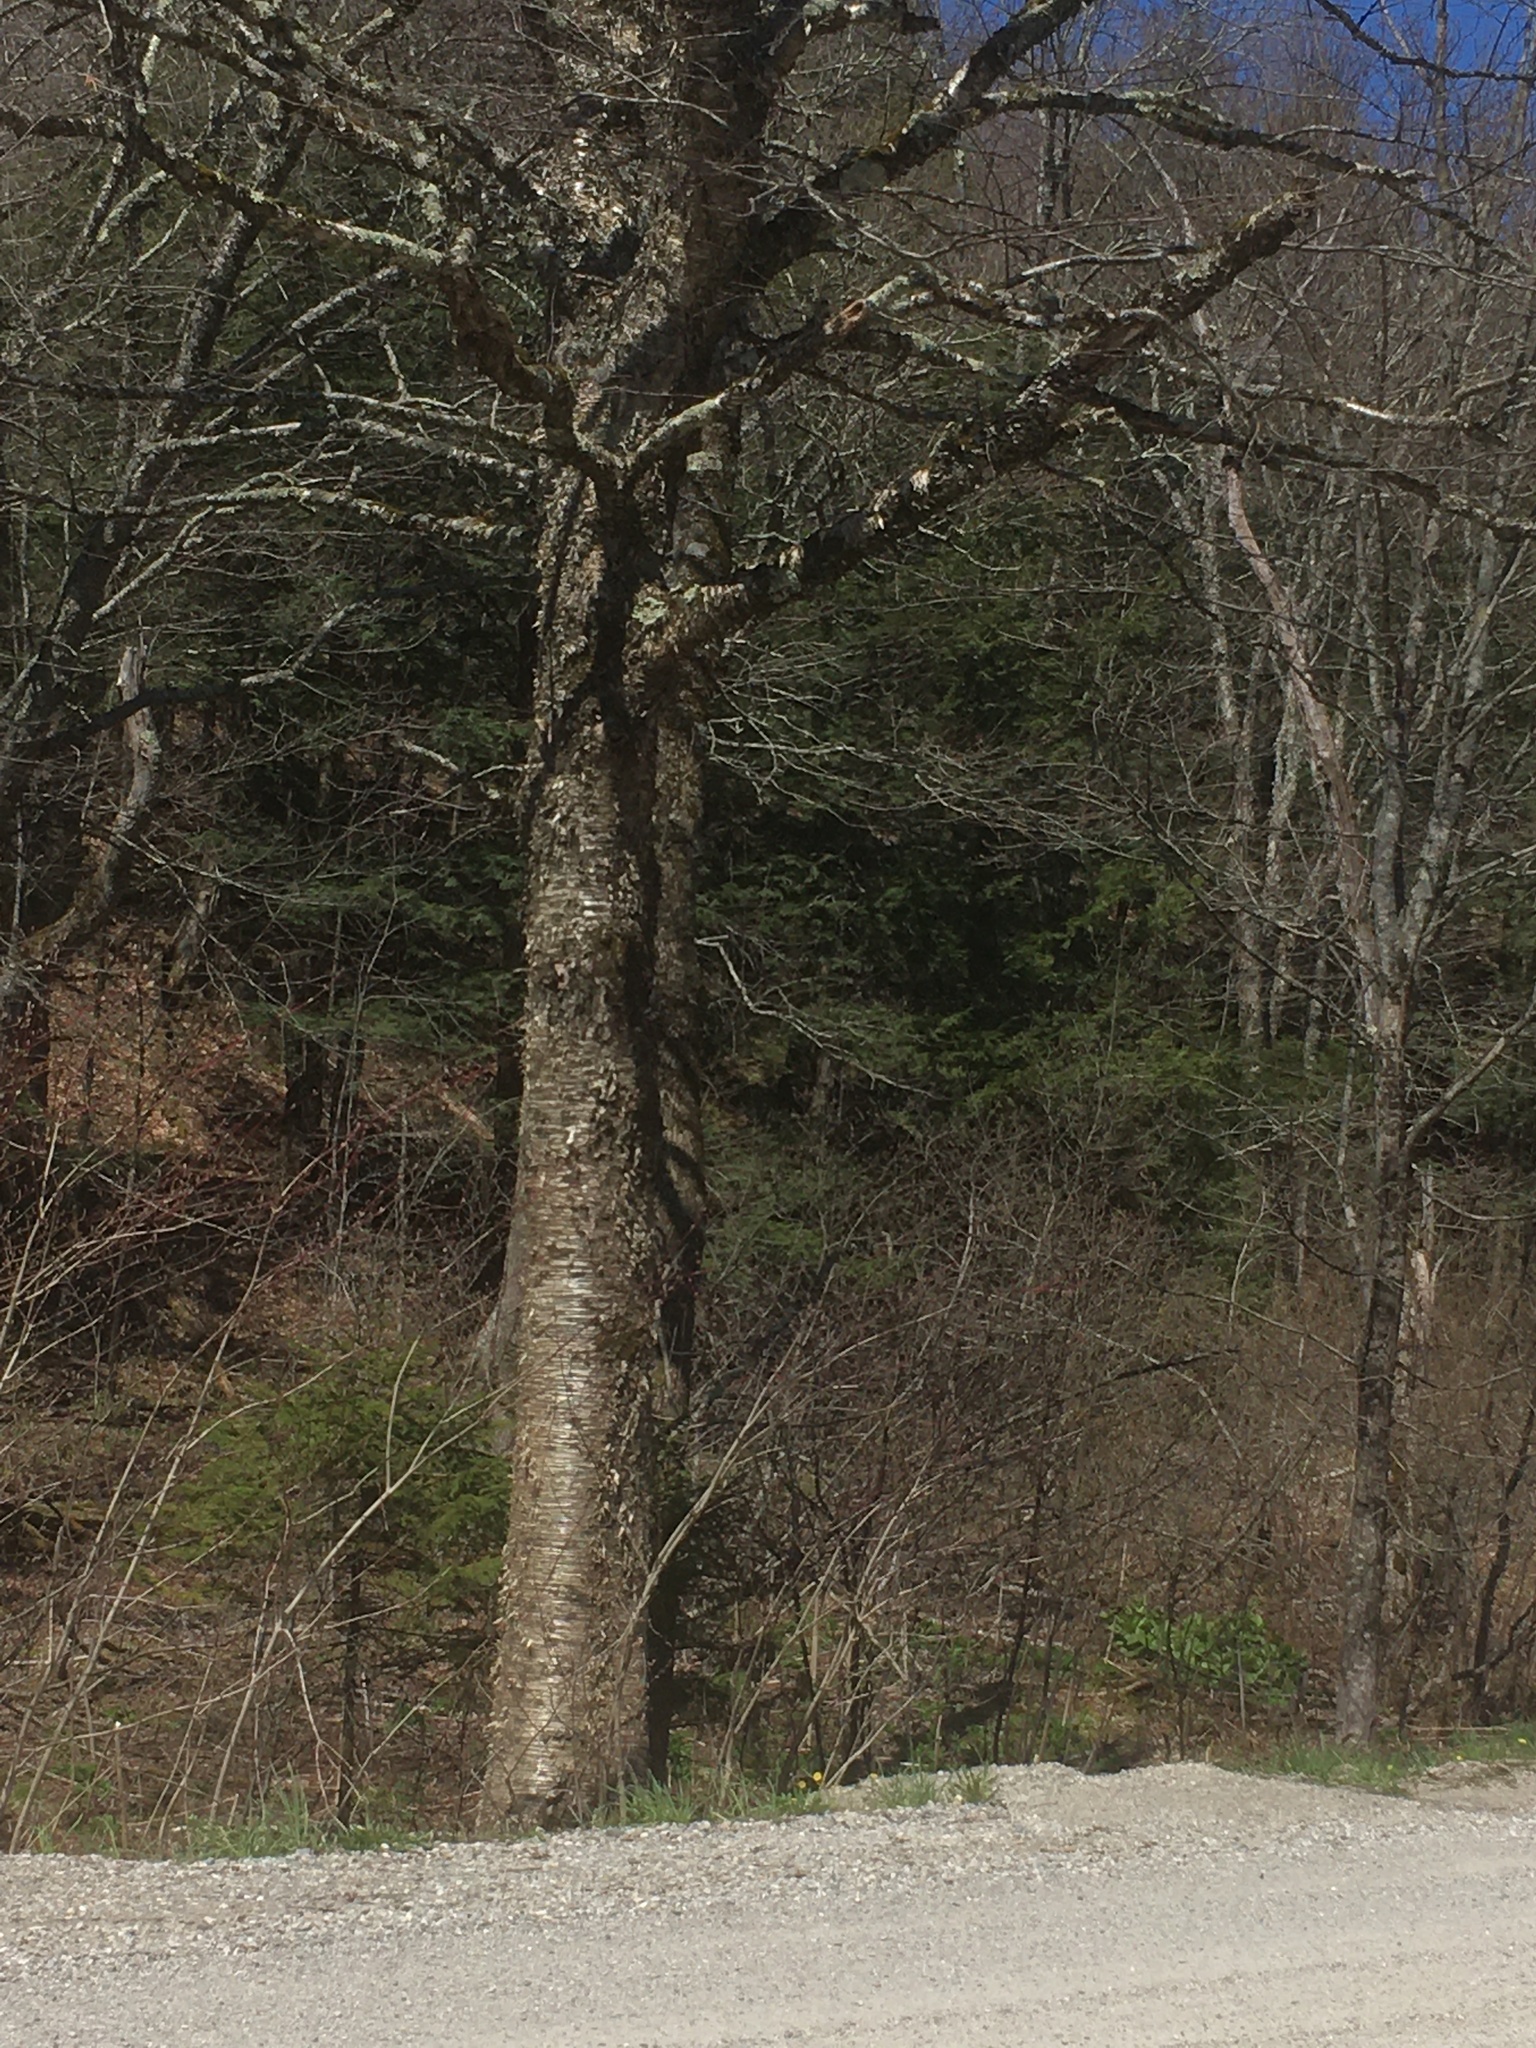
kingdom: Plantae
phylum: Tracheophyta
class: Magnoliopsida
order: Fagales
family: Betulaceae
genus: Betula
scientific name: Betula alleghaniensis
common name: Yellow birch
